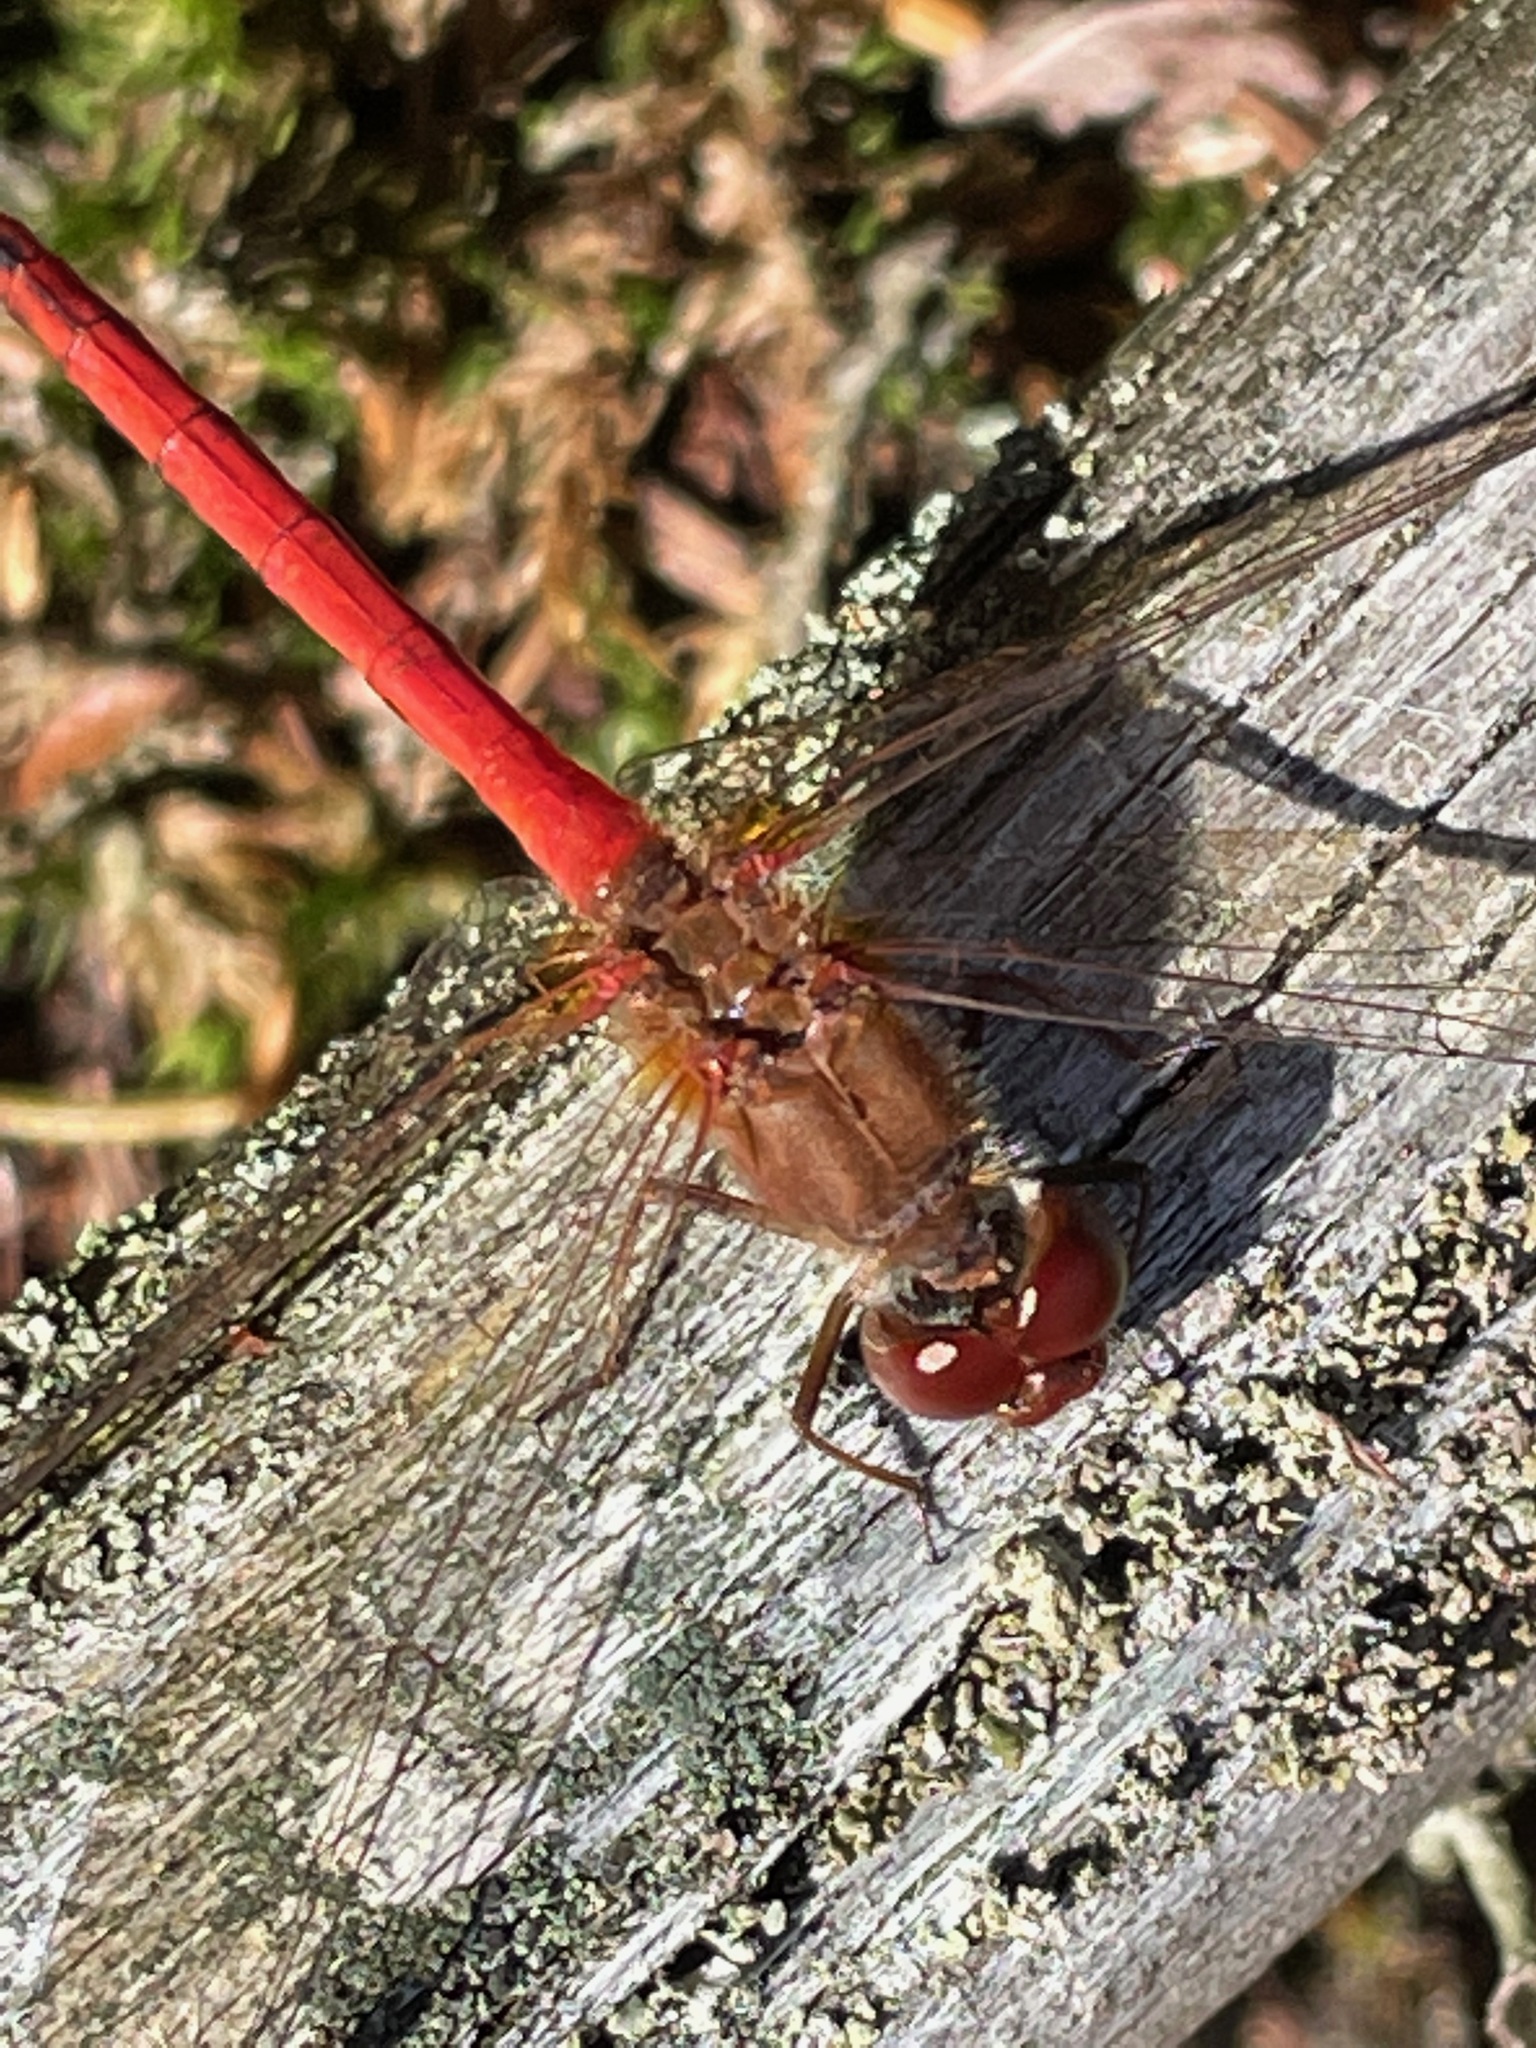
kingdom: Animalia
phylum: Arthropoda
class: Insecta
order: Odonata
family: Libellulidae
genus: Sympetrum
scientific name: Sympetrum vicinum
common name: Autumn meadowhawk
